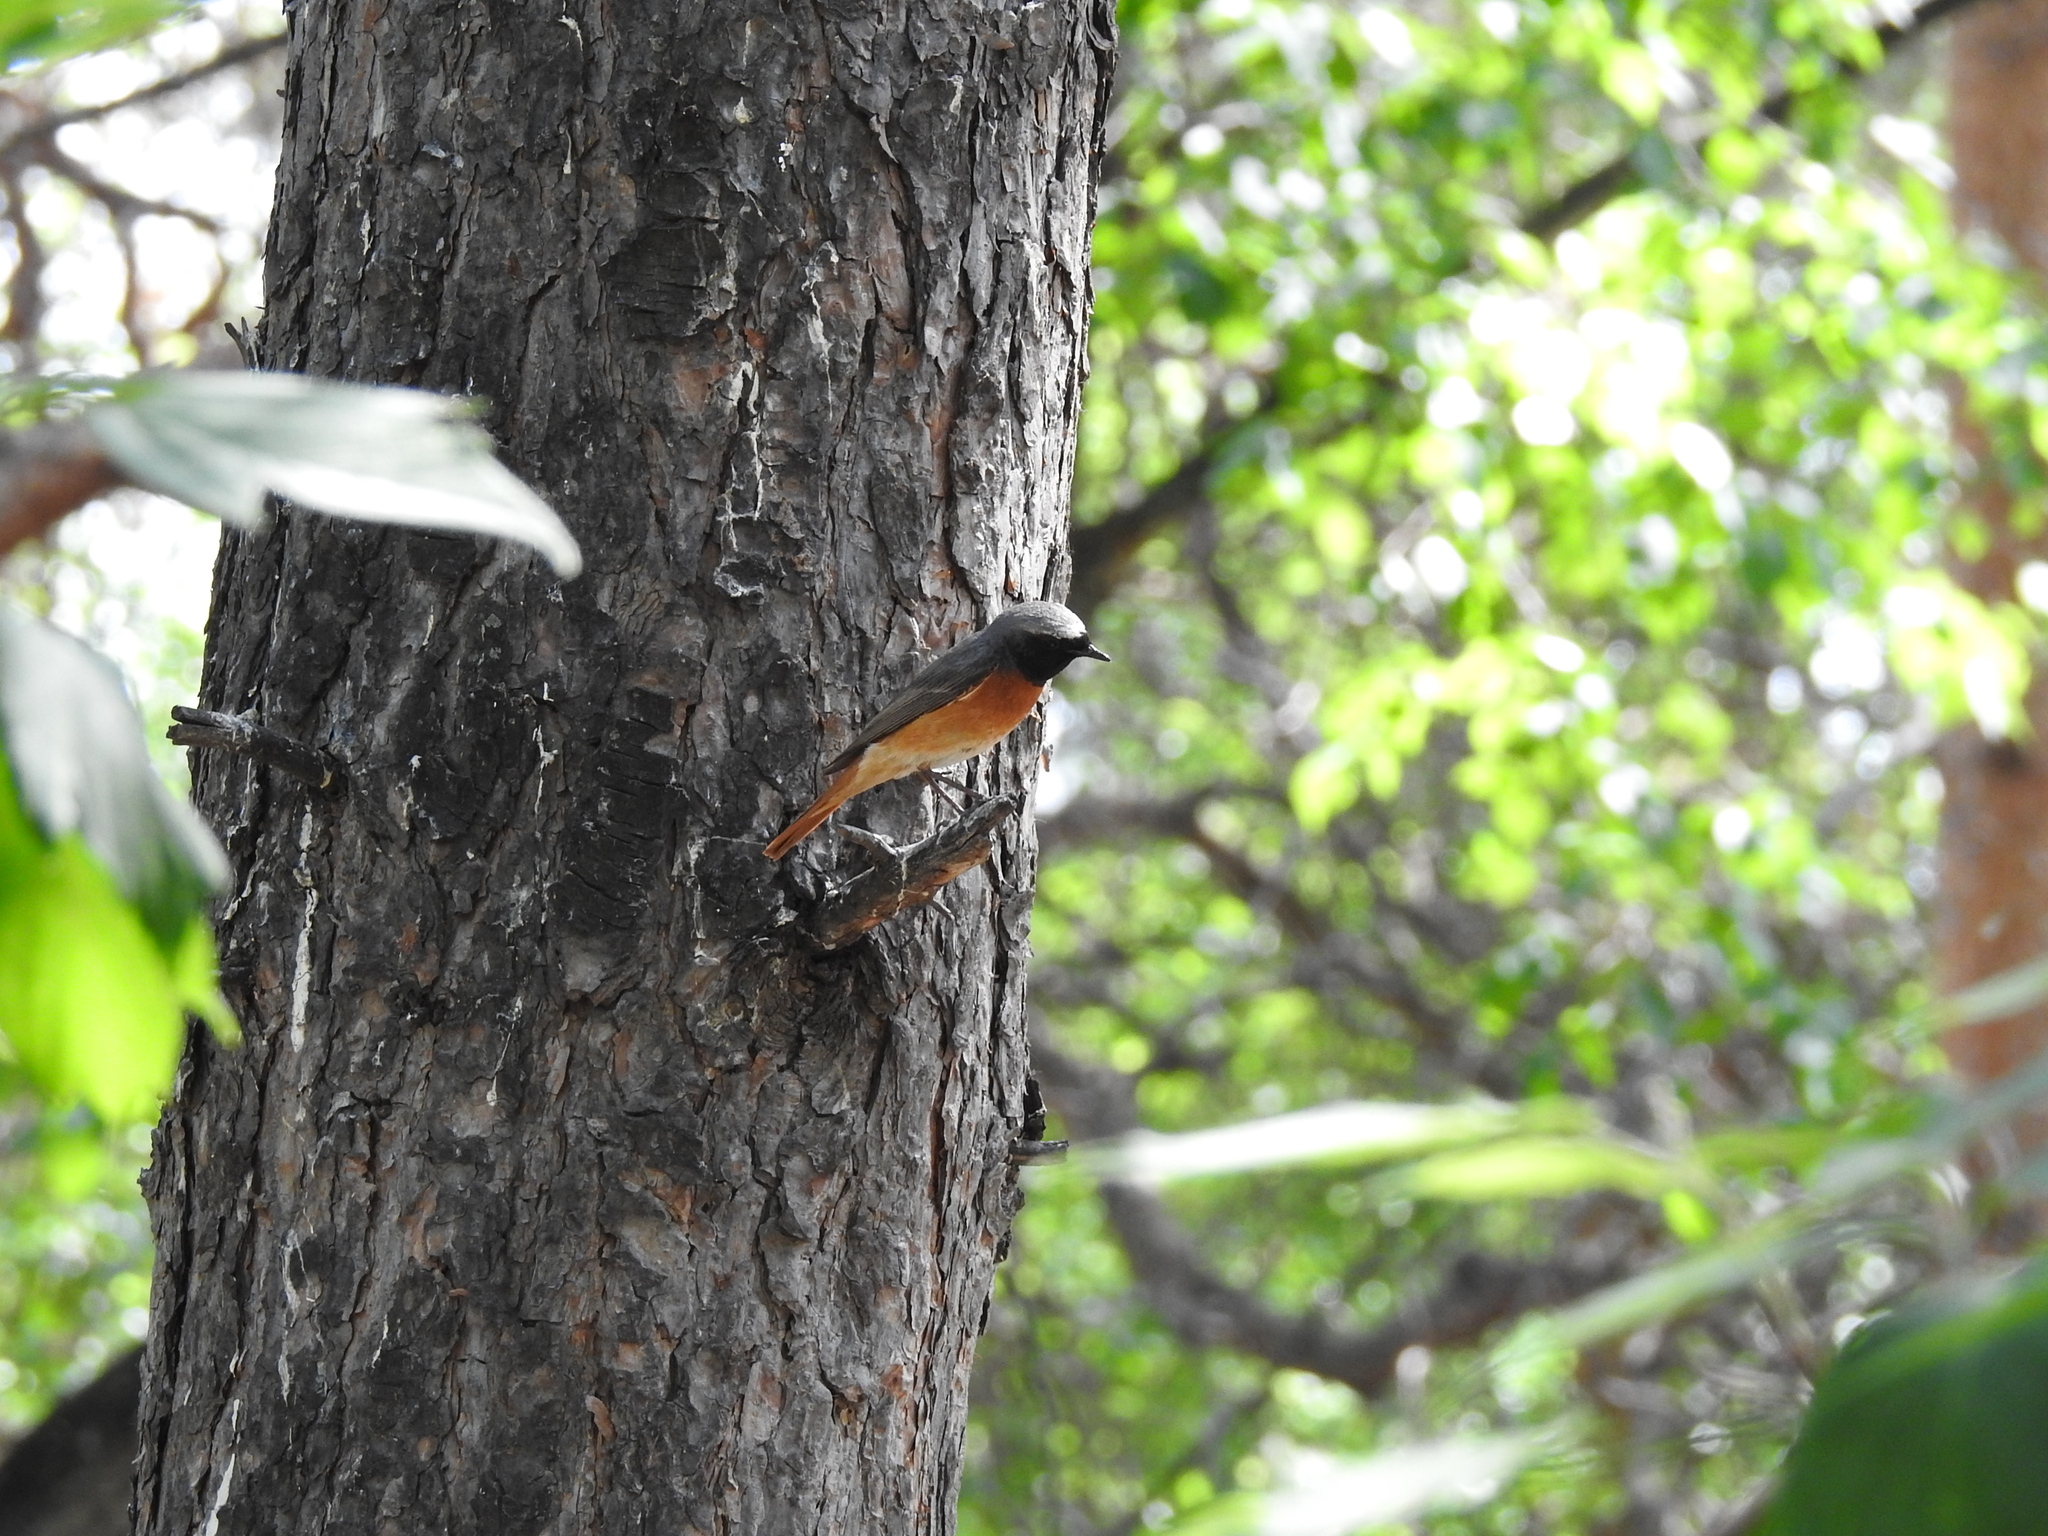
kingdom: Animalia
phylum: Chordata
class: Aves
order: Passeriformes
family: Muscicapidae
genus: Phoenicurus
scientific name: Phoenicurus phoenicurus
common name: Common redstart
